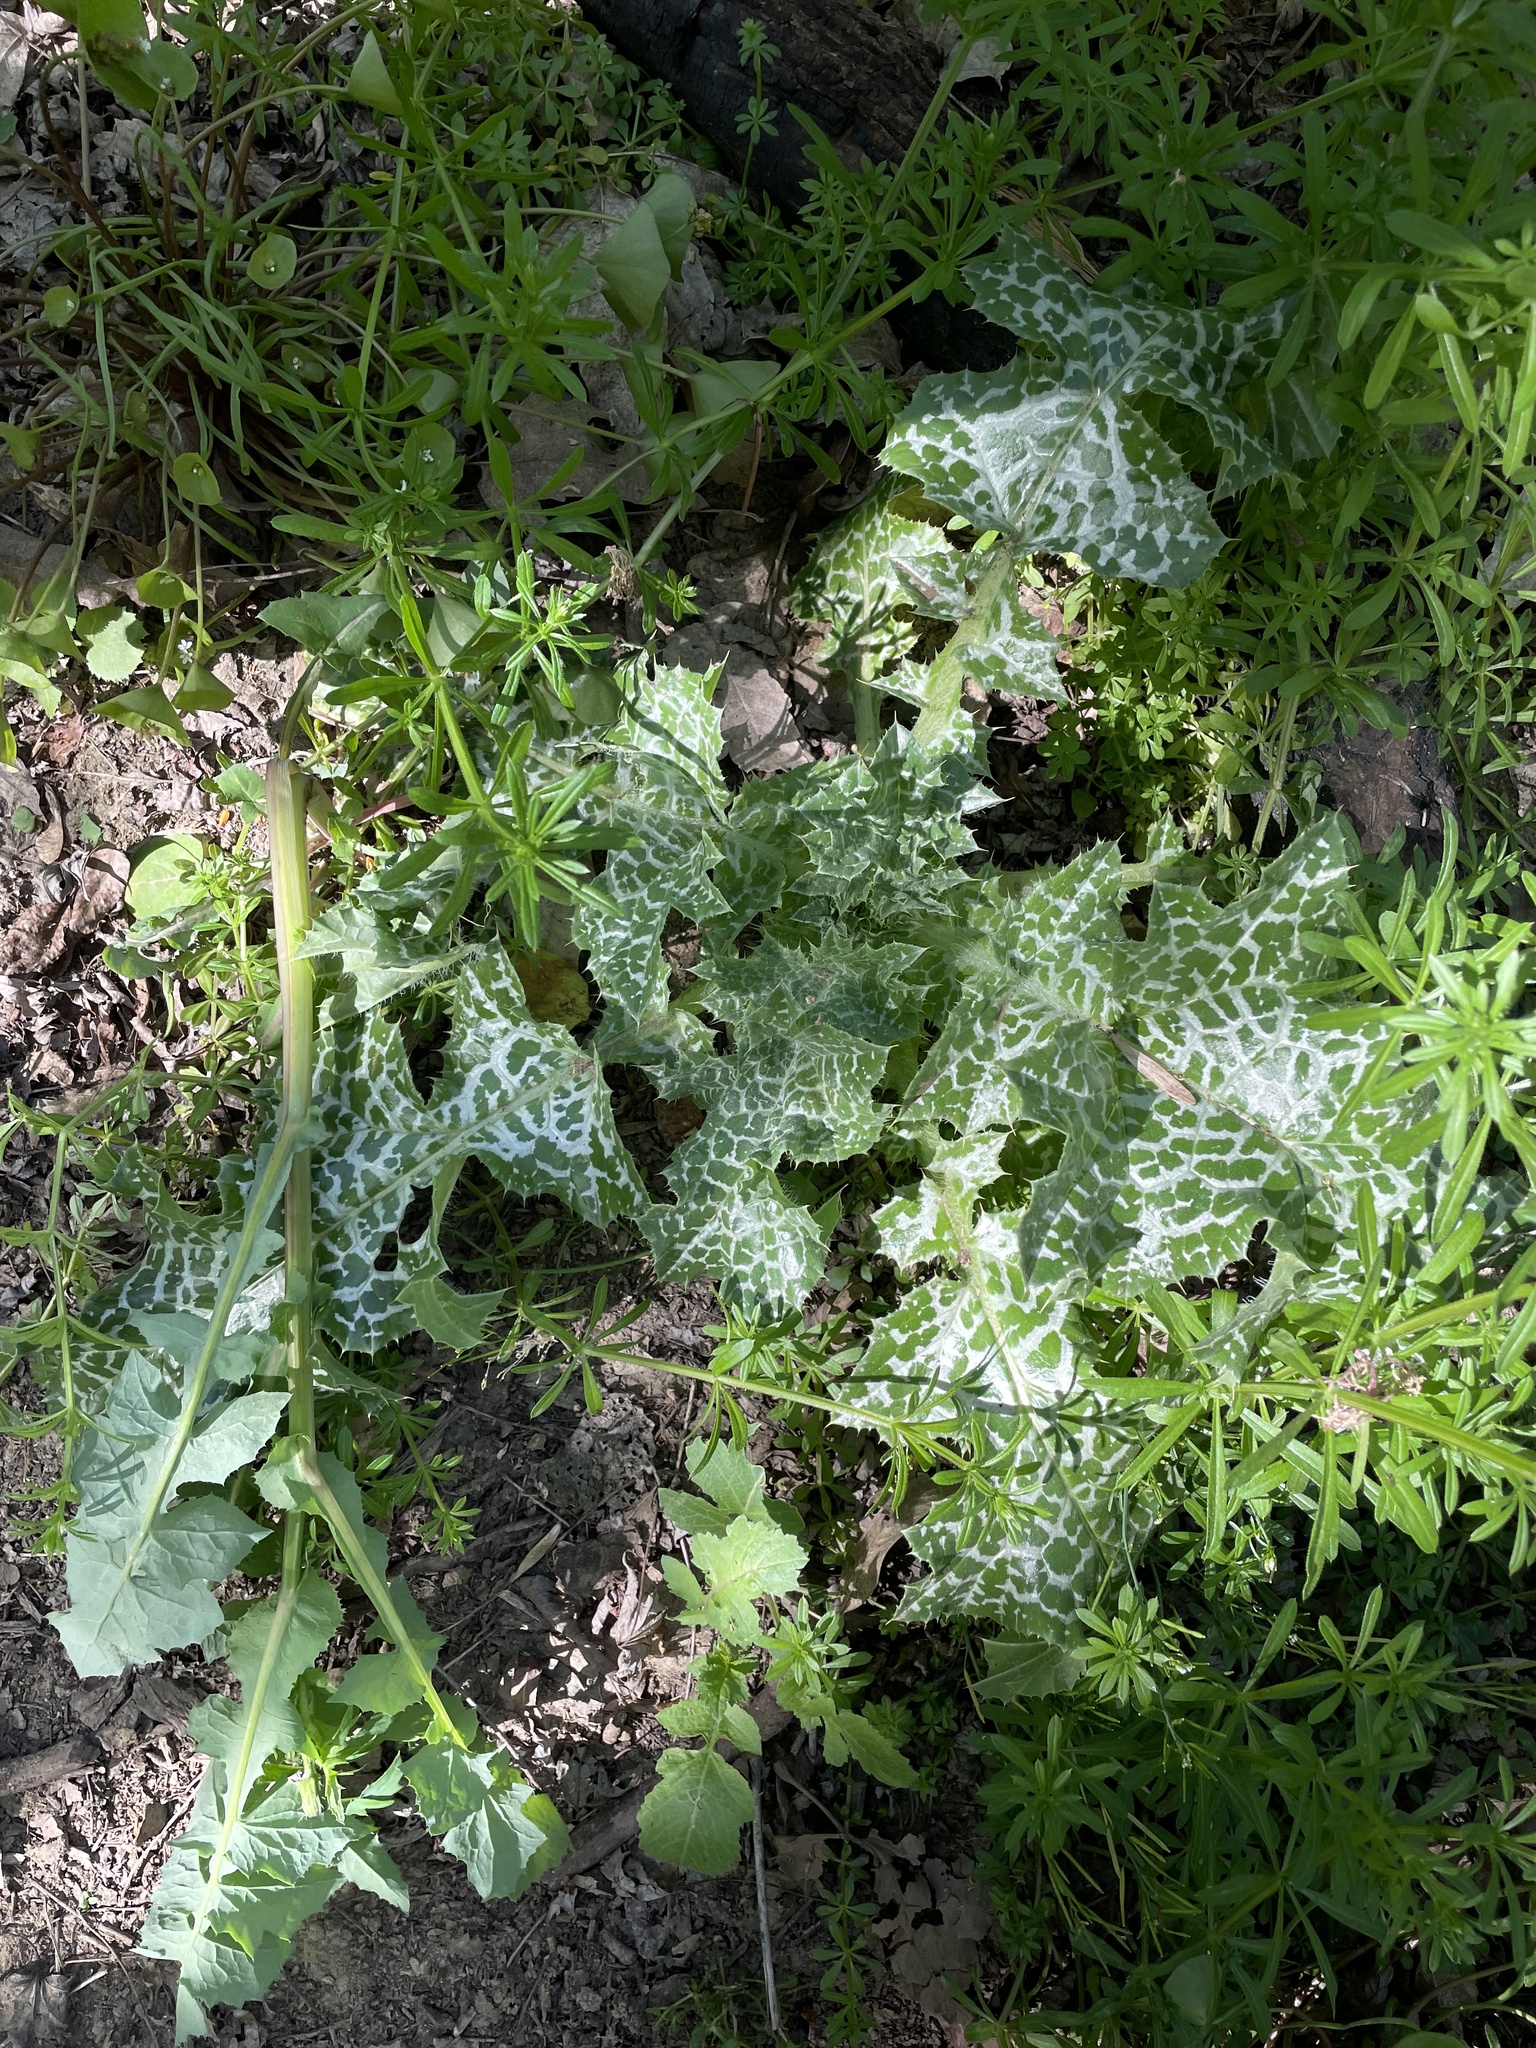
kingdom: Plantae
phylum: Tracheophyta
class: Magnoliopsida
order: Asterales
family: Asteraceae
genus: Silybum
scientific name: Silybum marianum
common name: Milk thistle
